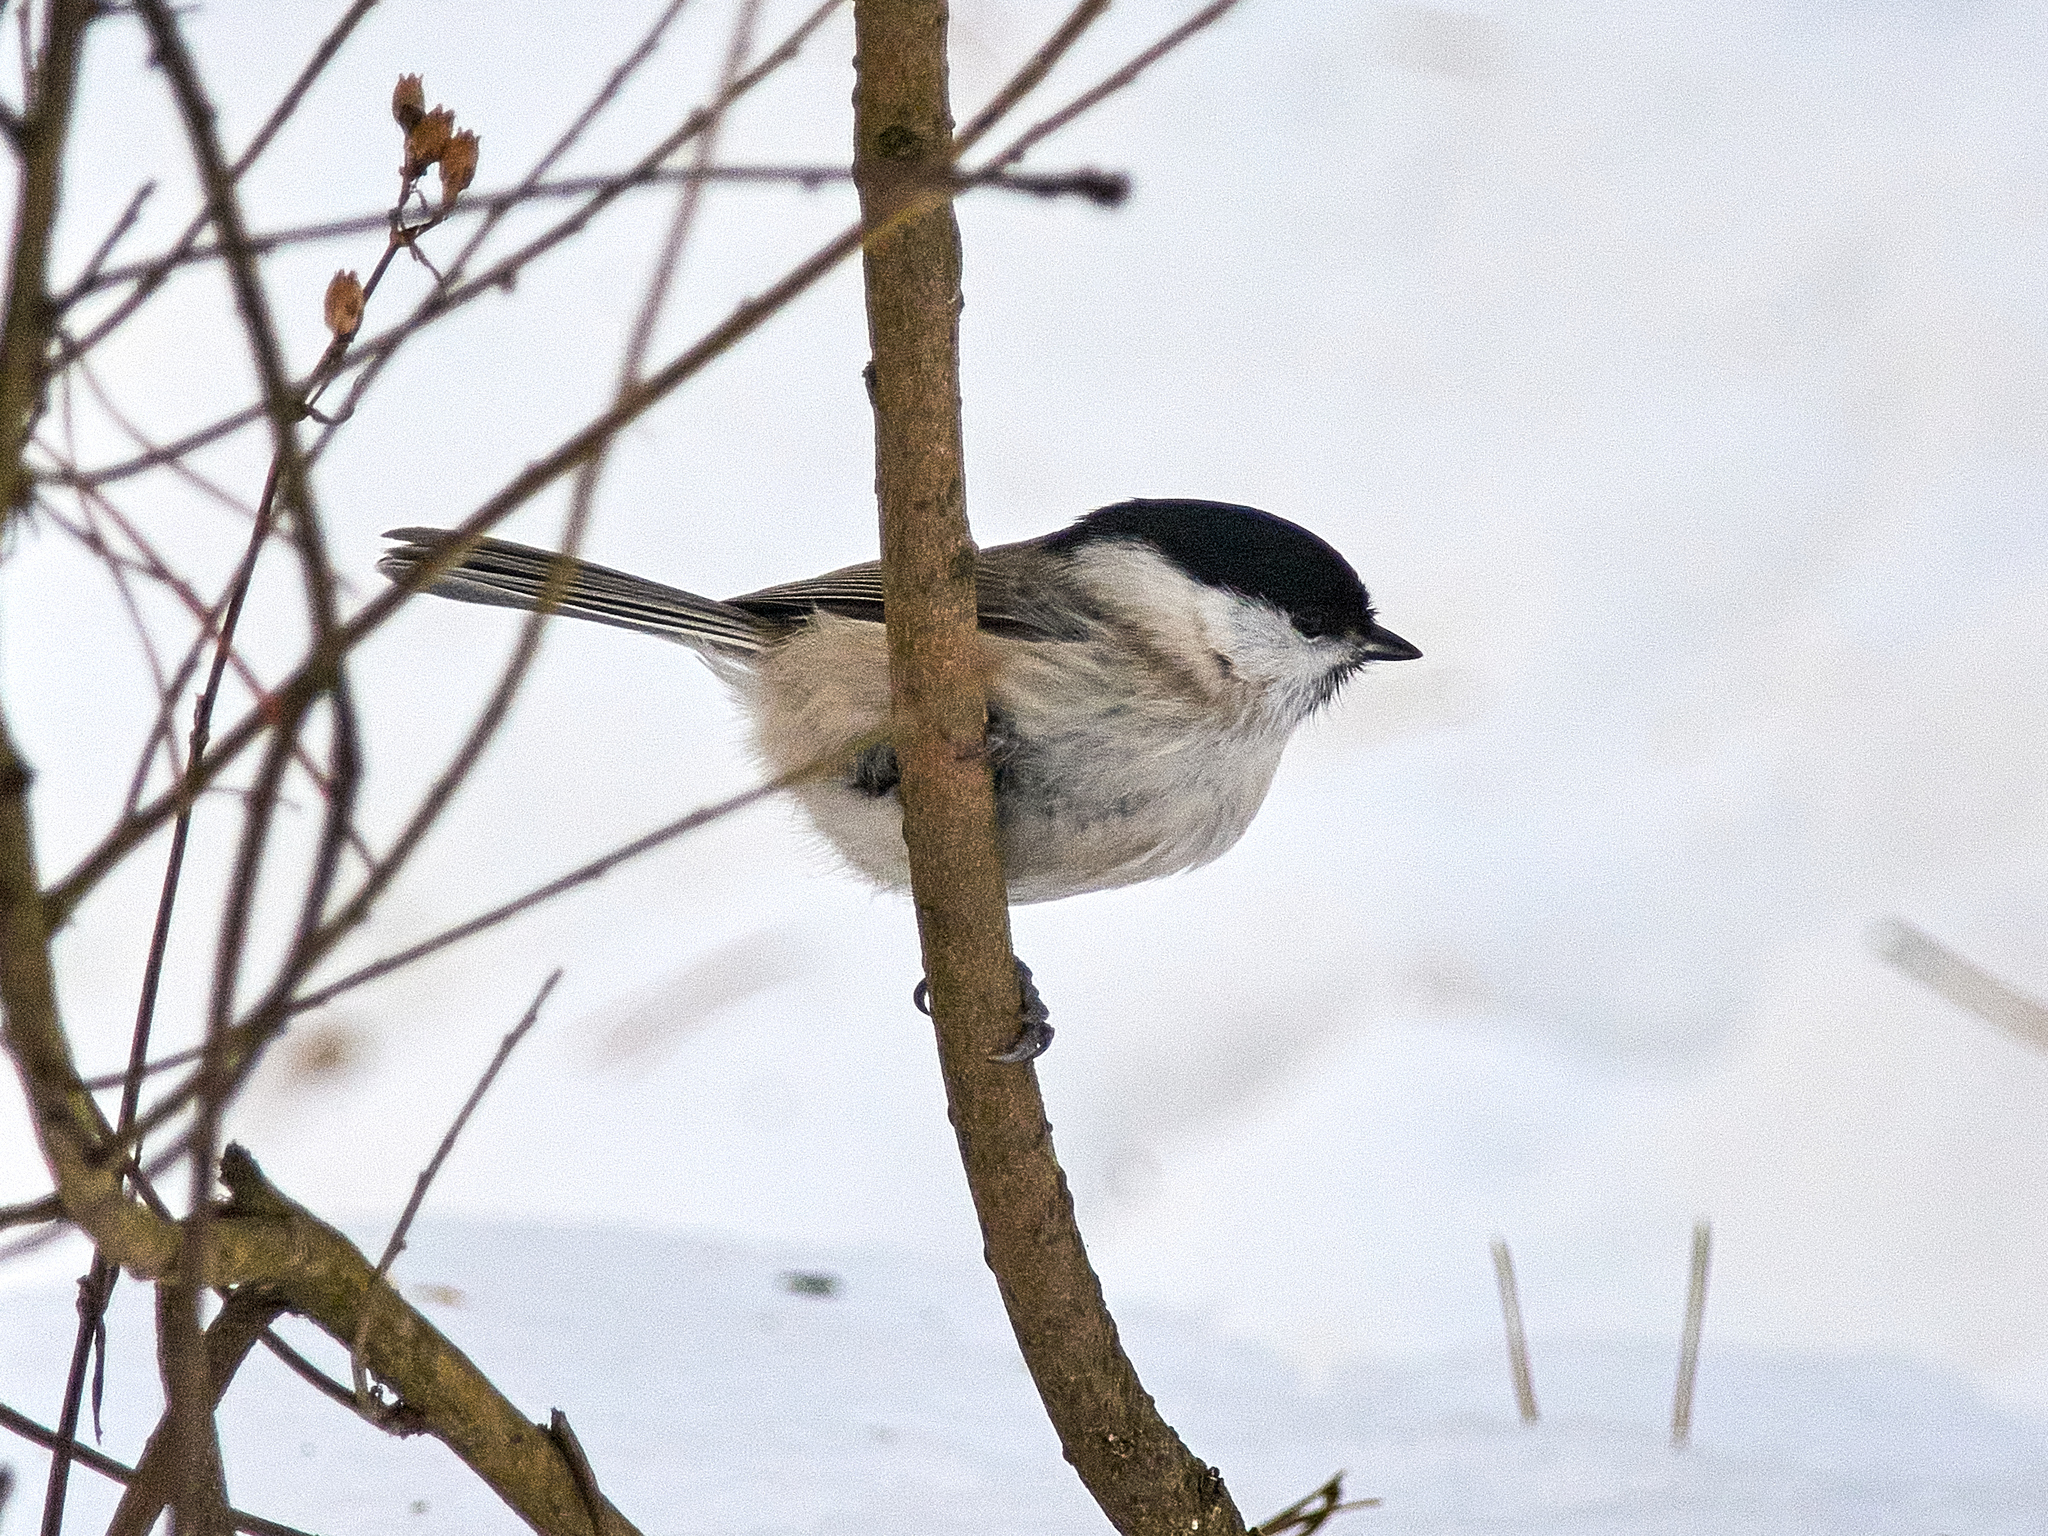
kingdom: Animalia
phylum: Chordata
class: Aves
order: Passeriformes
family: Paridae
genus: Poecile
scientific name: Poecile palustris
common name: Marsh tit
